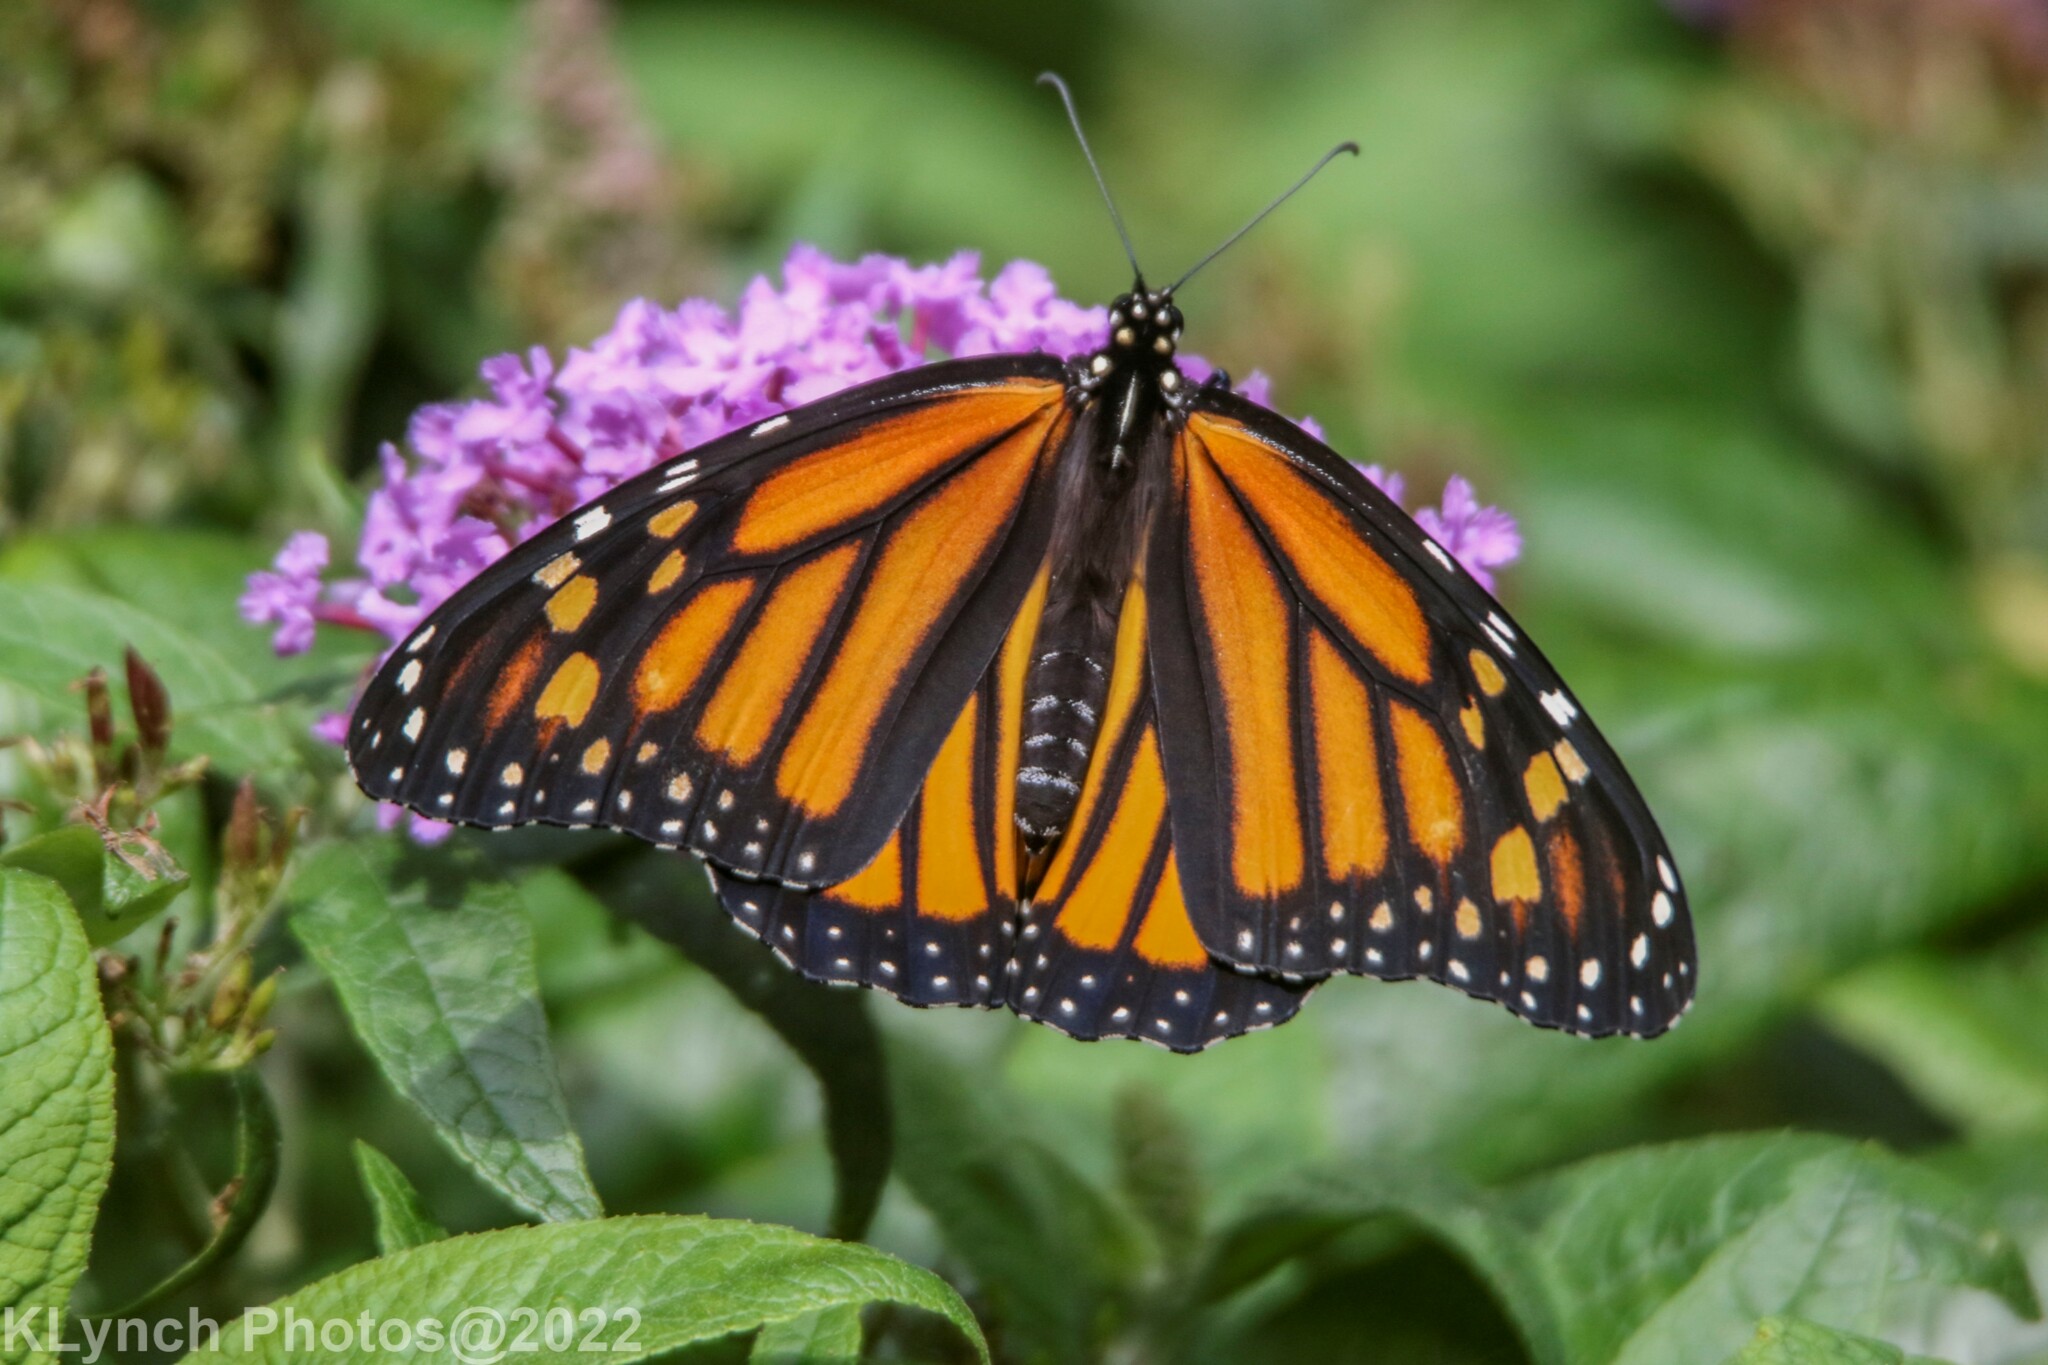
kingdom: Animalia
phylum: Arthropoda
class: Insecta
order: Lepidoptera
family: Nymphalidae
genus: Danaus
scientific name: Danaus plexippus
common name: Monarch
